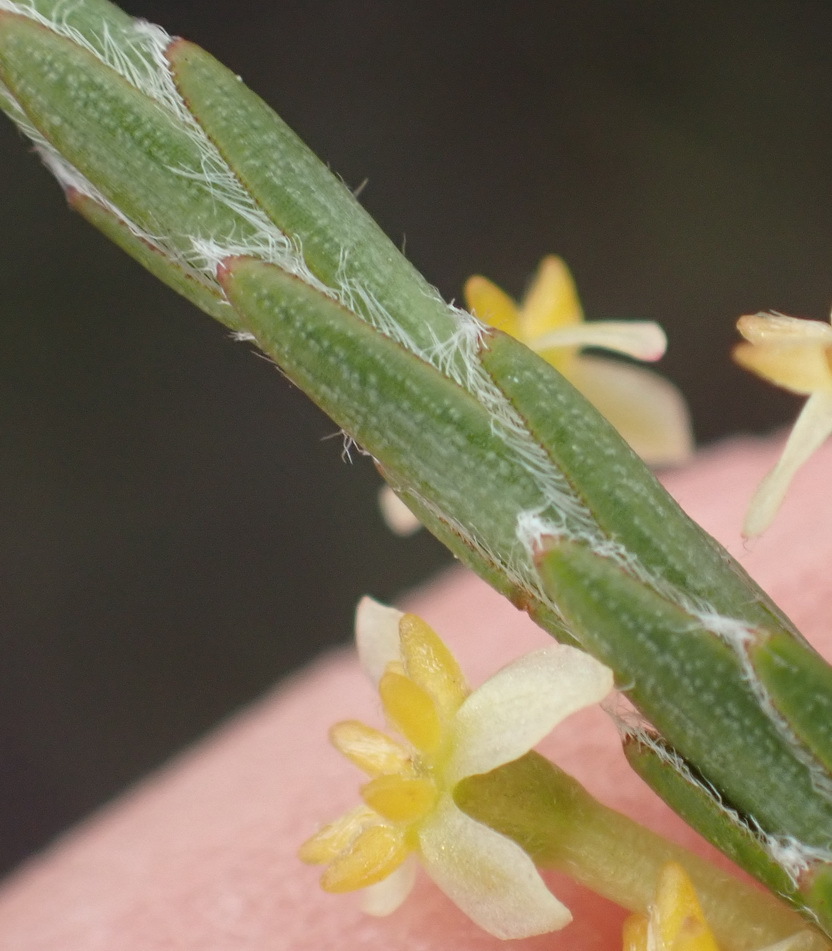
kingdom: Plantae
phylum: Tracheophyta
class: Magnoliopsida
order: Malvales
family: Thymelaeaceae
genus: Struthiola
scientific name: Struthiola eckloniana
